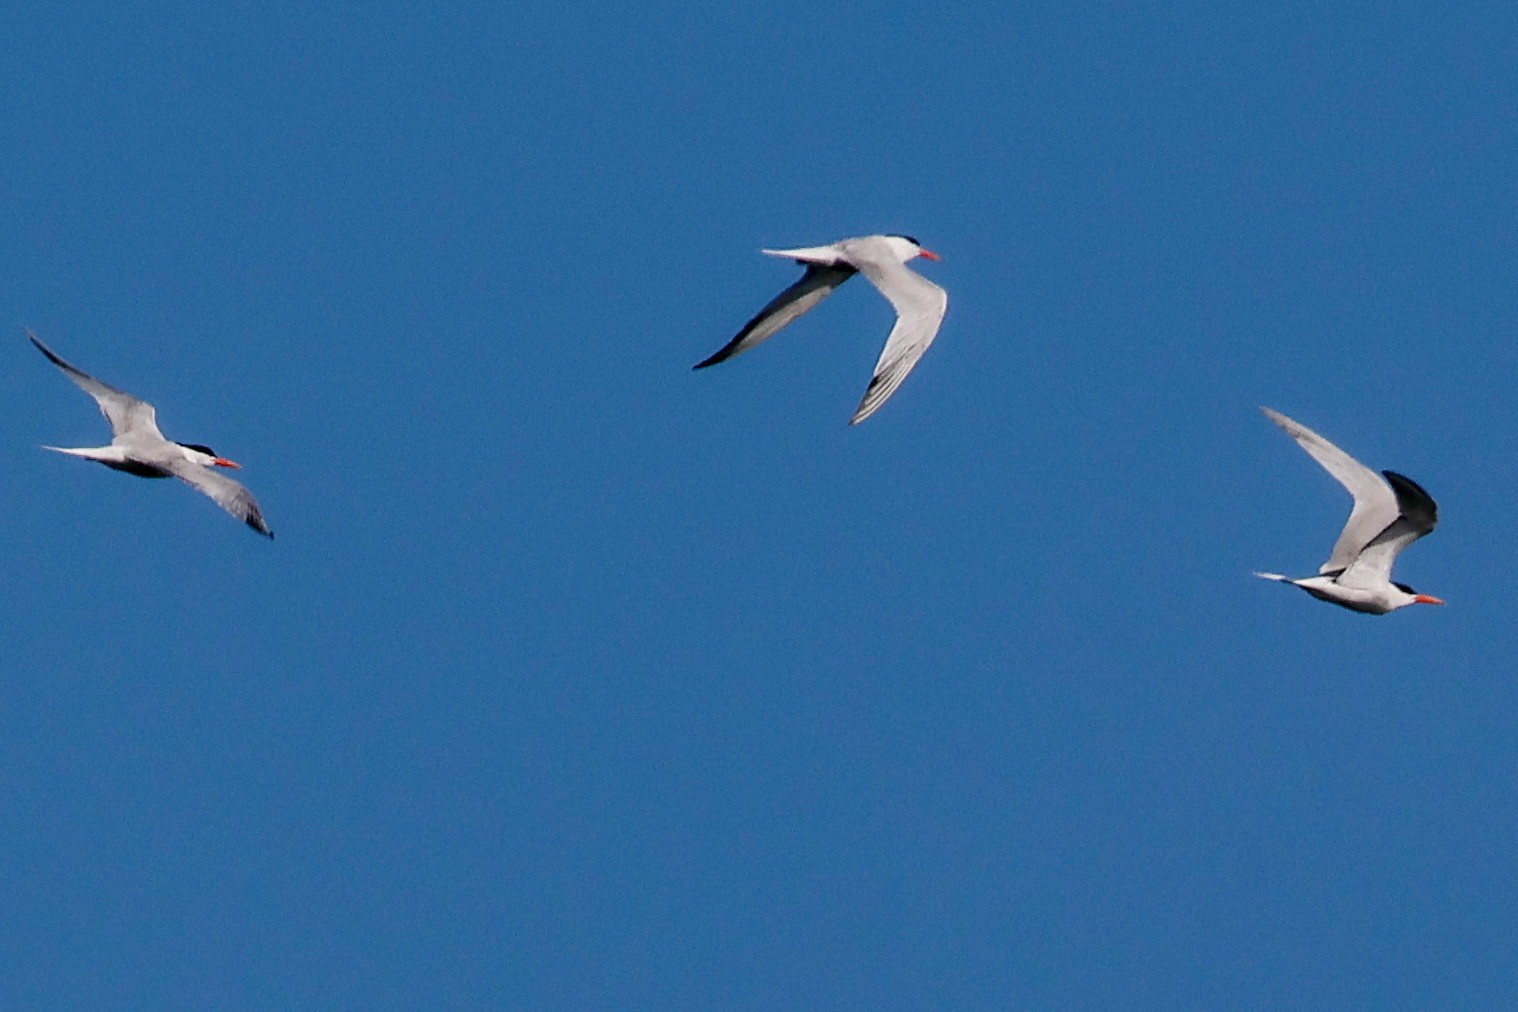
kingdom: Animalia
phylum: Chordata
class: Aves
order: Charadriiformes
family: Laridae
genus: Hydroprogne
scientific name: Hydroprogne caspia
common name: Caspian tern
